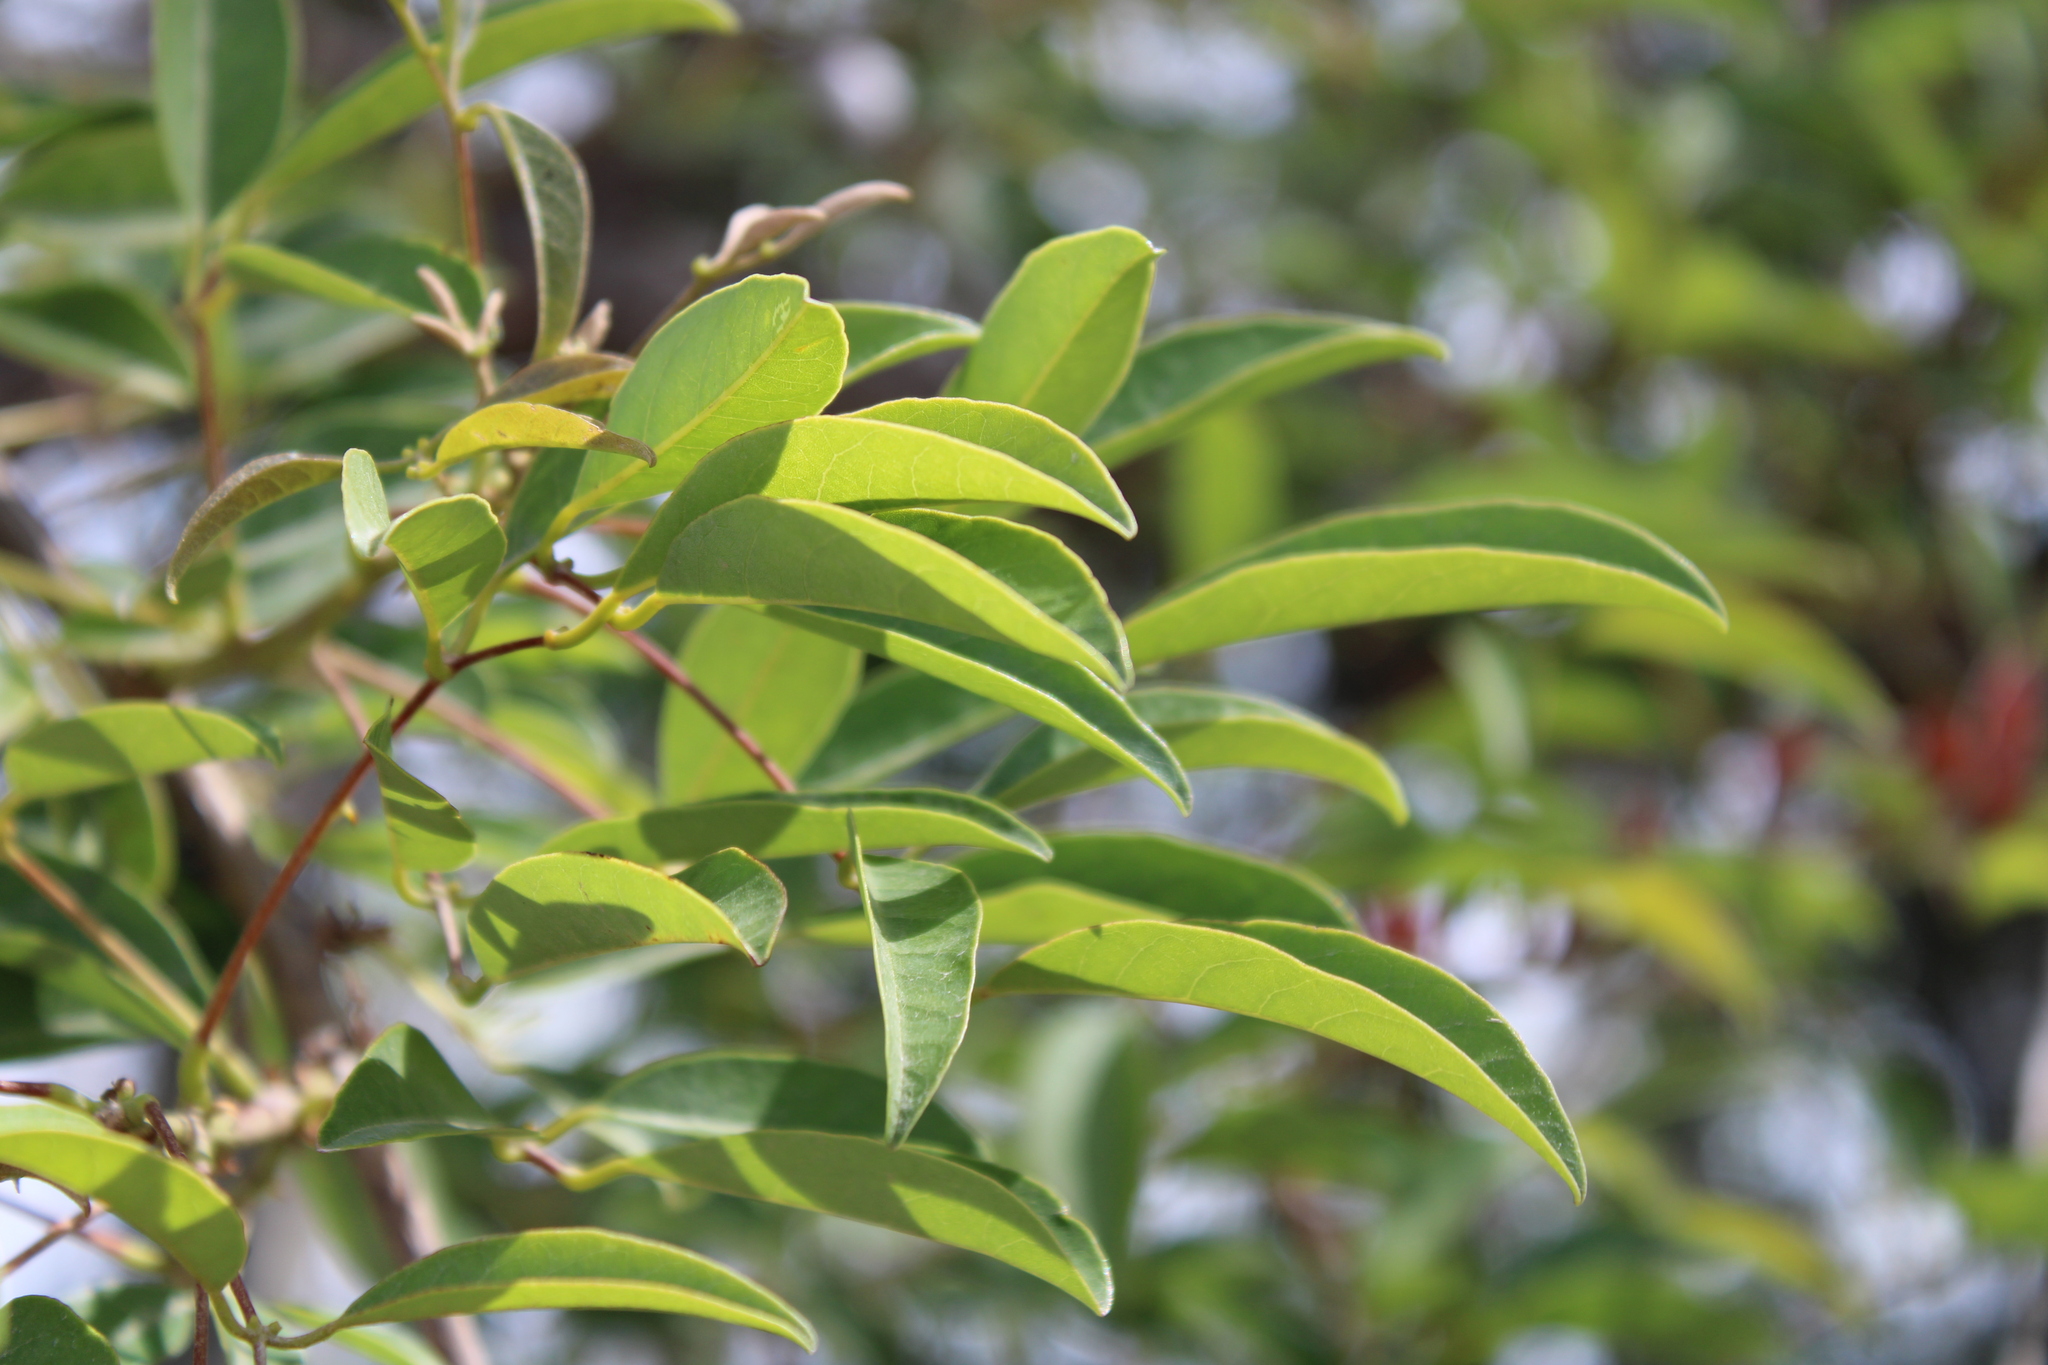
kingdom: Plantae
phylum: Tracheophyta
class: Magnoliopsida
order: Fabales
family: Fabaceae
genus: Erythrina
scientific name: Erythrina crista-galli
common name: Cockspur coral tree
